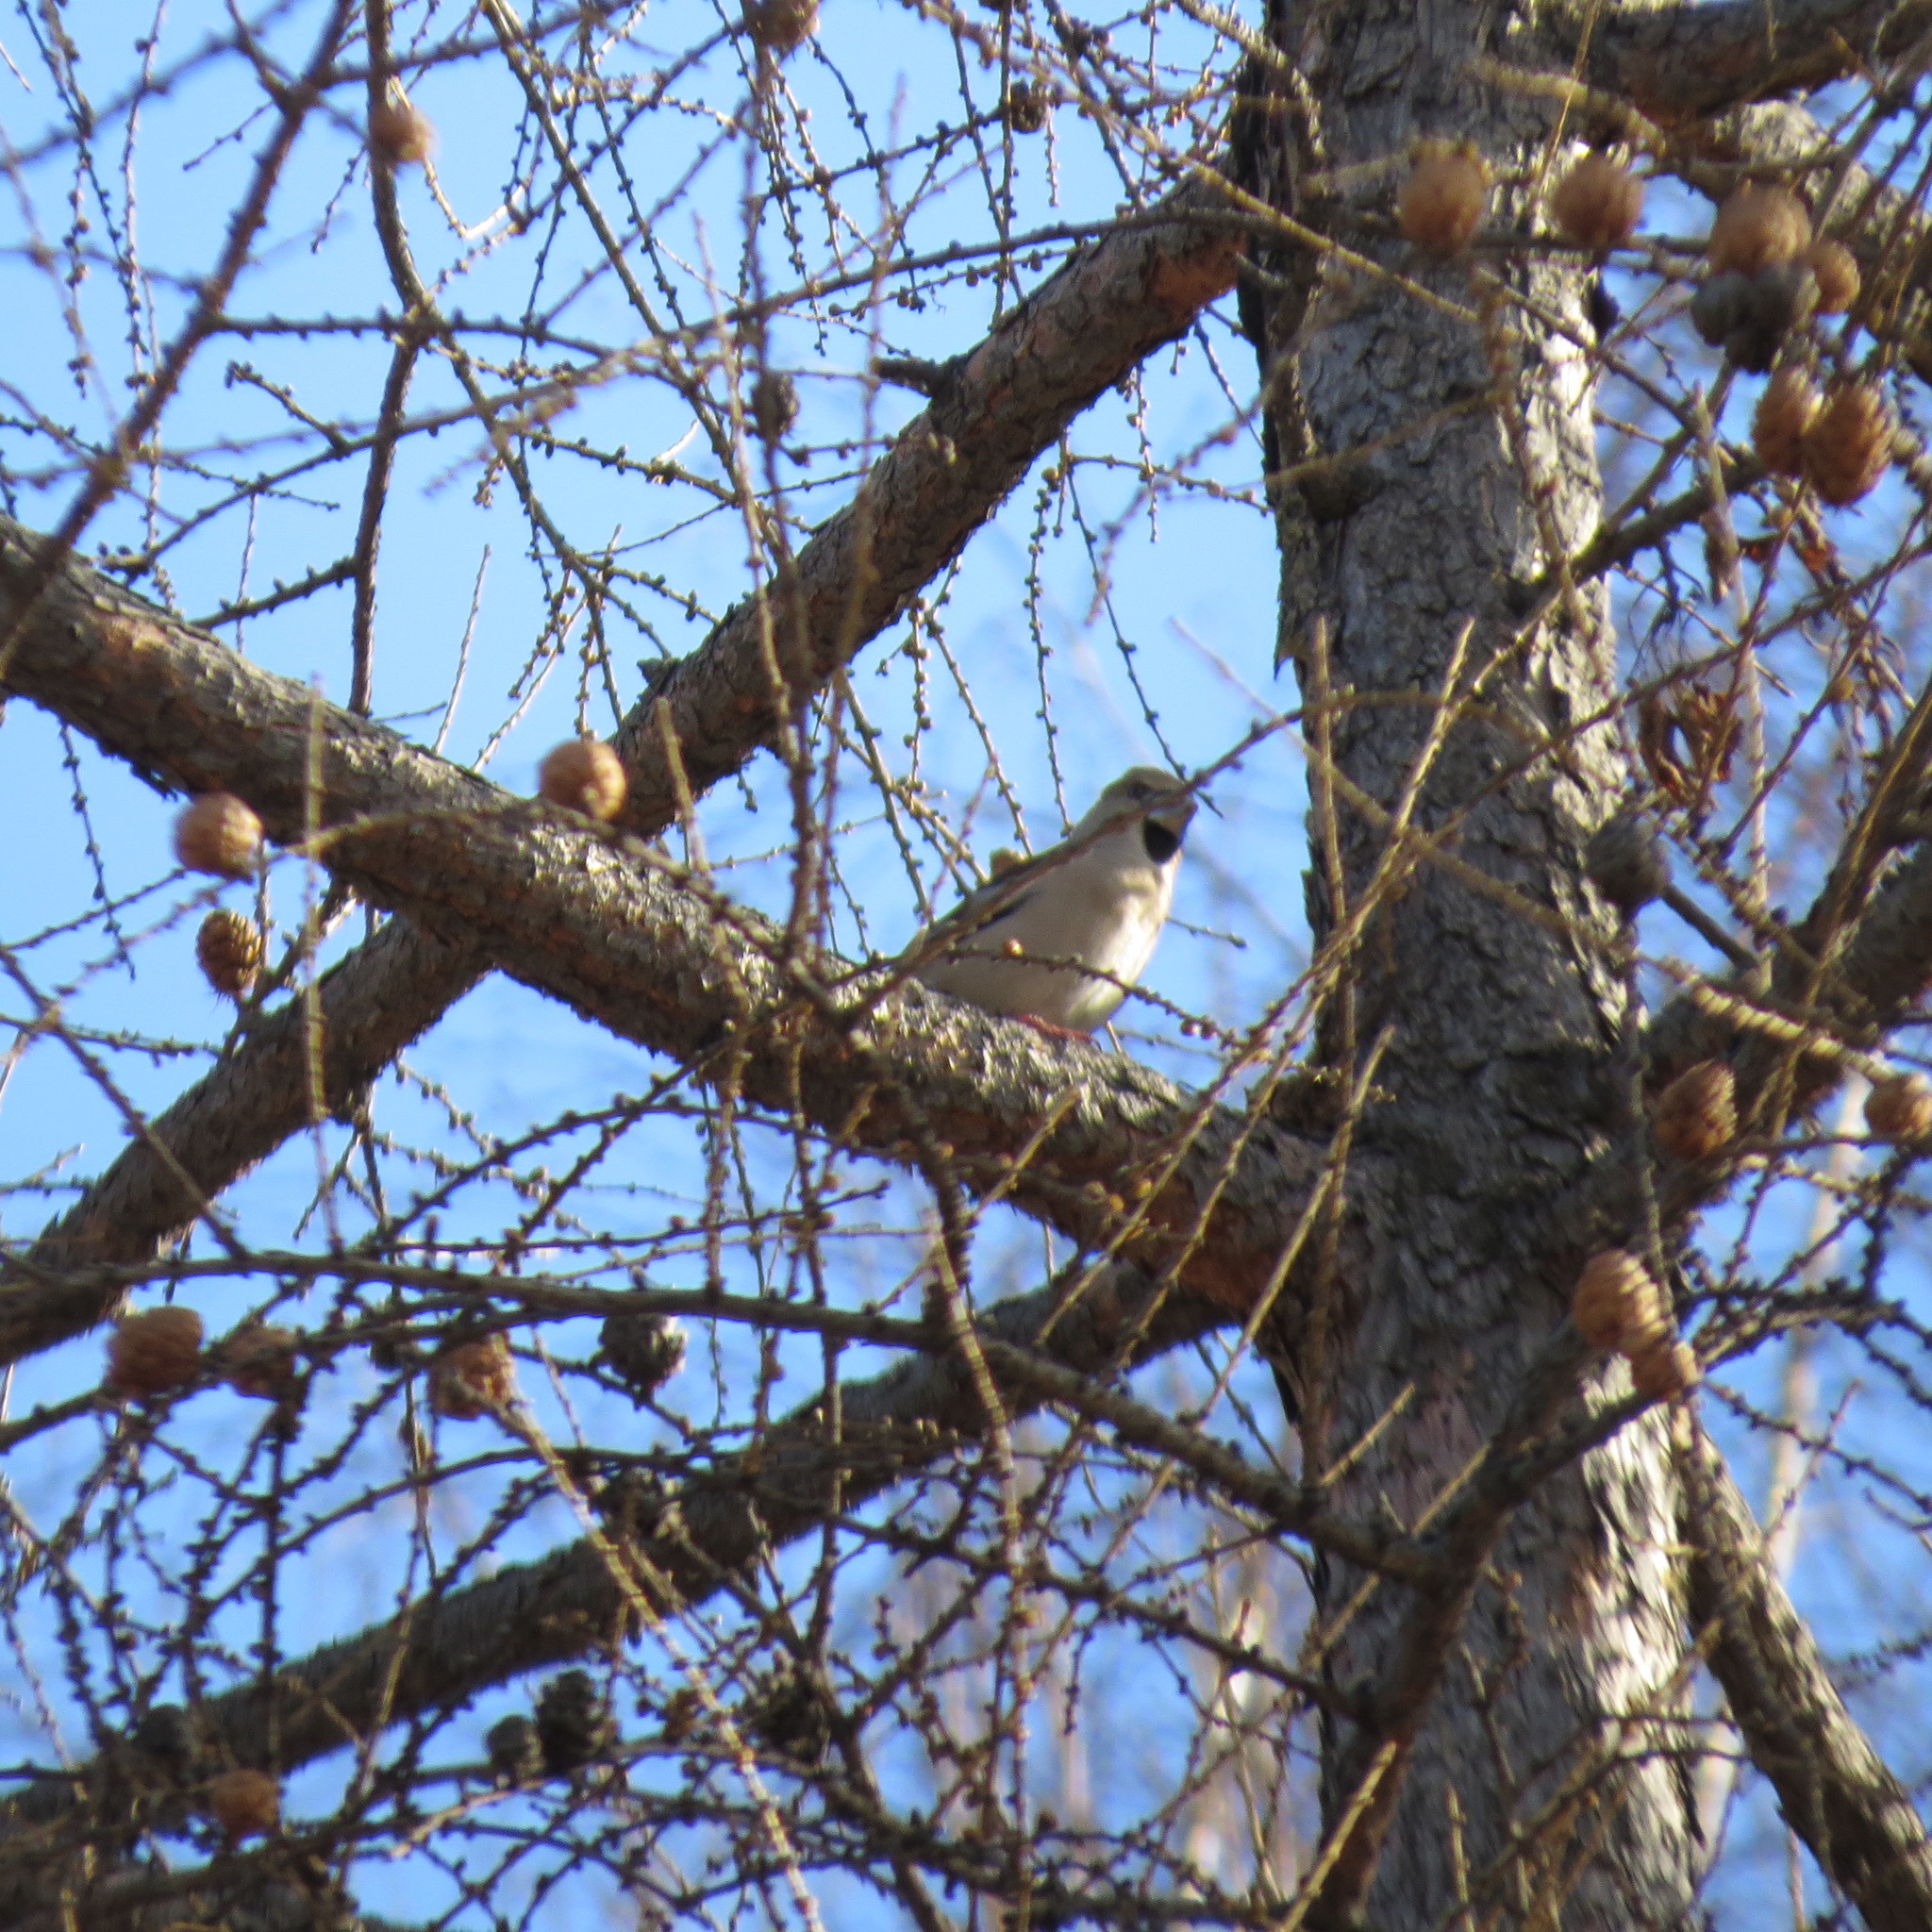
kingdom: Animalia
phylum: Chordata
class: Aves
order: Passeriformes
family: Fringillidae
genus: Coccothraustes
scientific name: Coccothraustes coccothraustes
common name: Hawfinch
